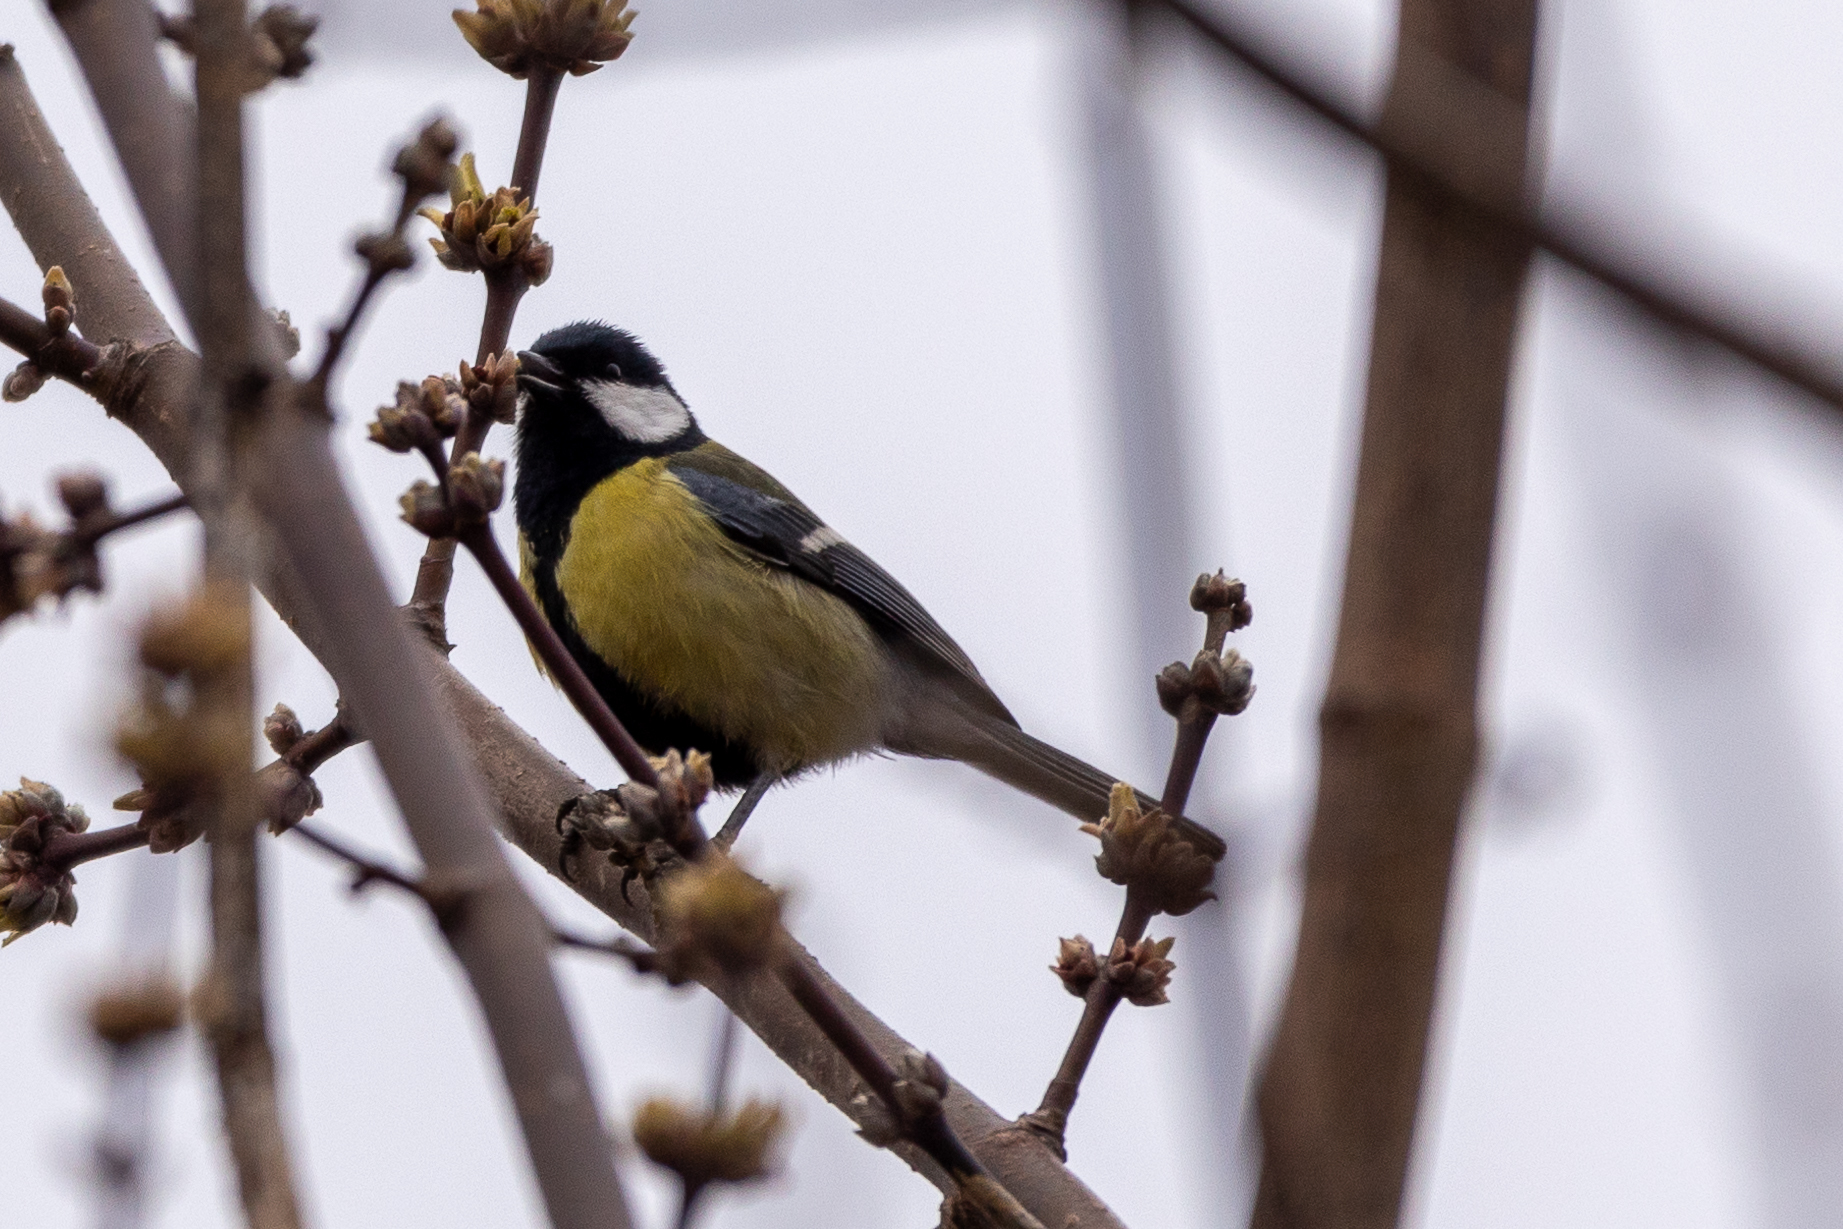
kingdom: Animalia
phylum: Chordata
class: Aves
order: Passeriformes
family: Paridae
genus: Parus
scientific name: Parus major
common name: Great tit
